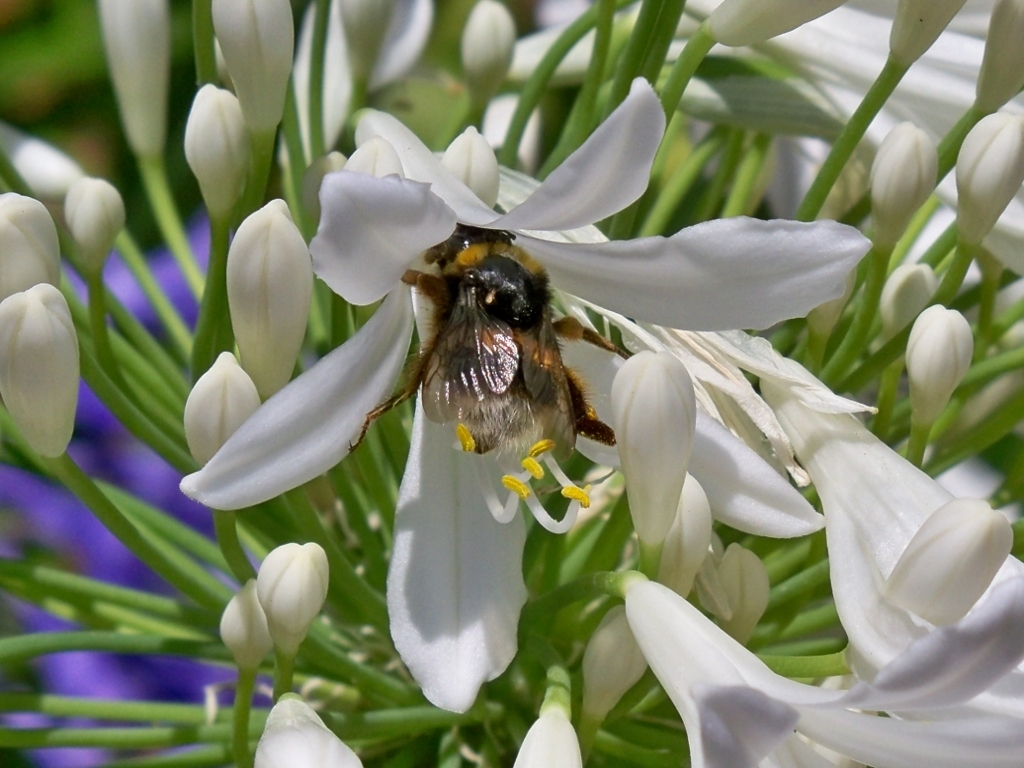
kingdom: Animalia
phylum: Arthropoda
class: Insecta
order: Hymenoptera
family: Apidae
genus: Bombus
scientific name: Bombus terrestris
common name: Buff-tailed bumblebee
